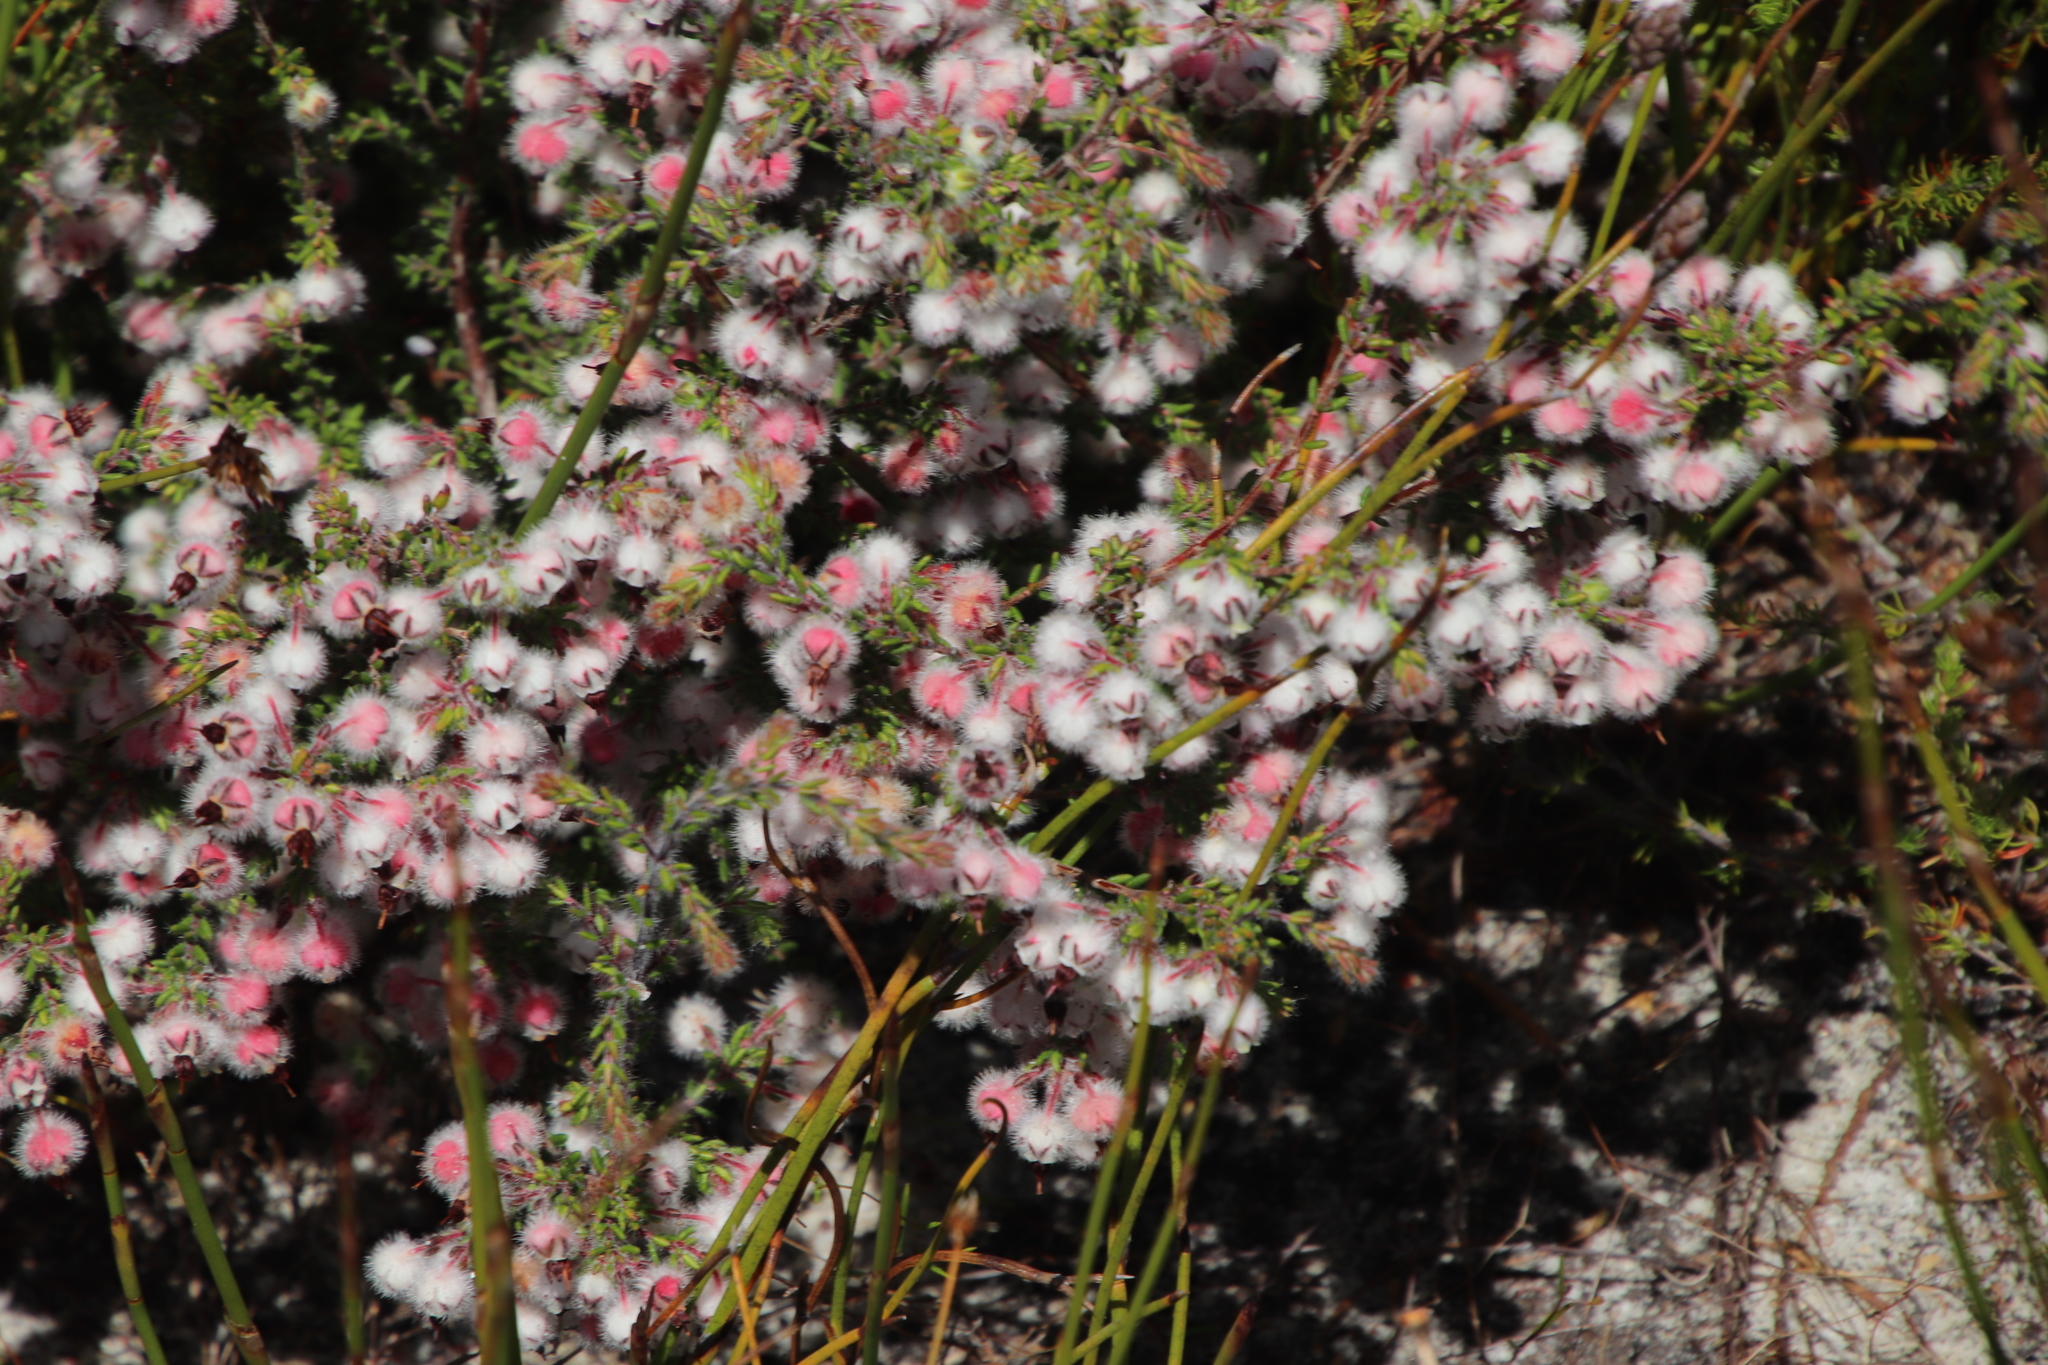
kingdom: Plantae
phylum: Tracheophyta
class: Magnoliopsida
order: Ericales
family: Ericaceae
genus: Erica
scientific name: Erica bruniades
